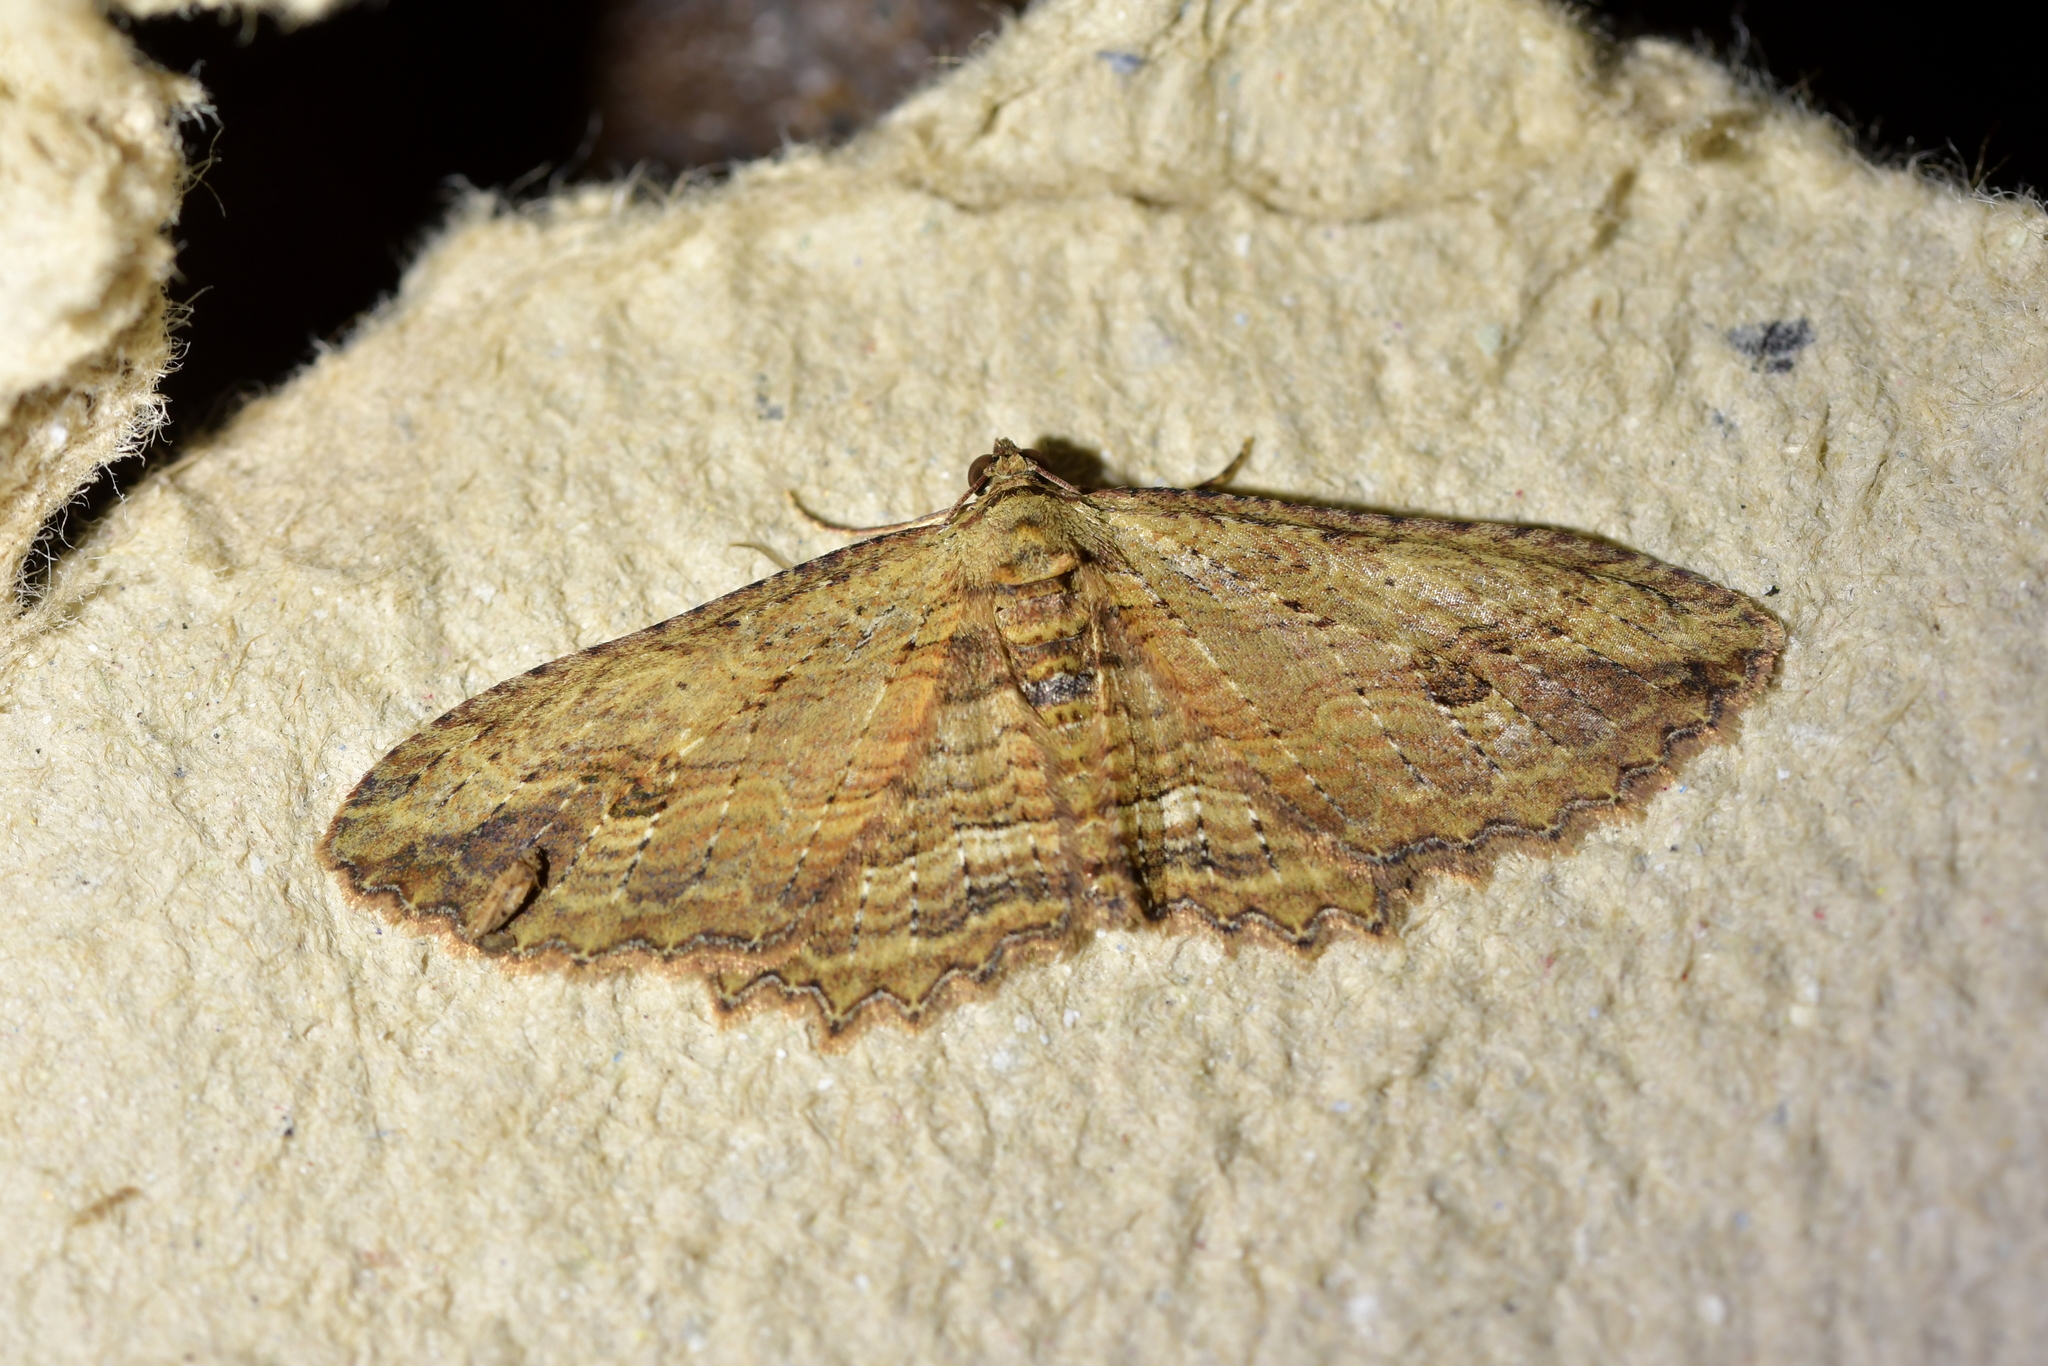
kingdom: Animalia
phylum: Arthropoda
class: Insecta
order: Lepidoptera
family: Geometridae
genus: Austrocidaria
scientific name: Austrocidaria bipartita
